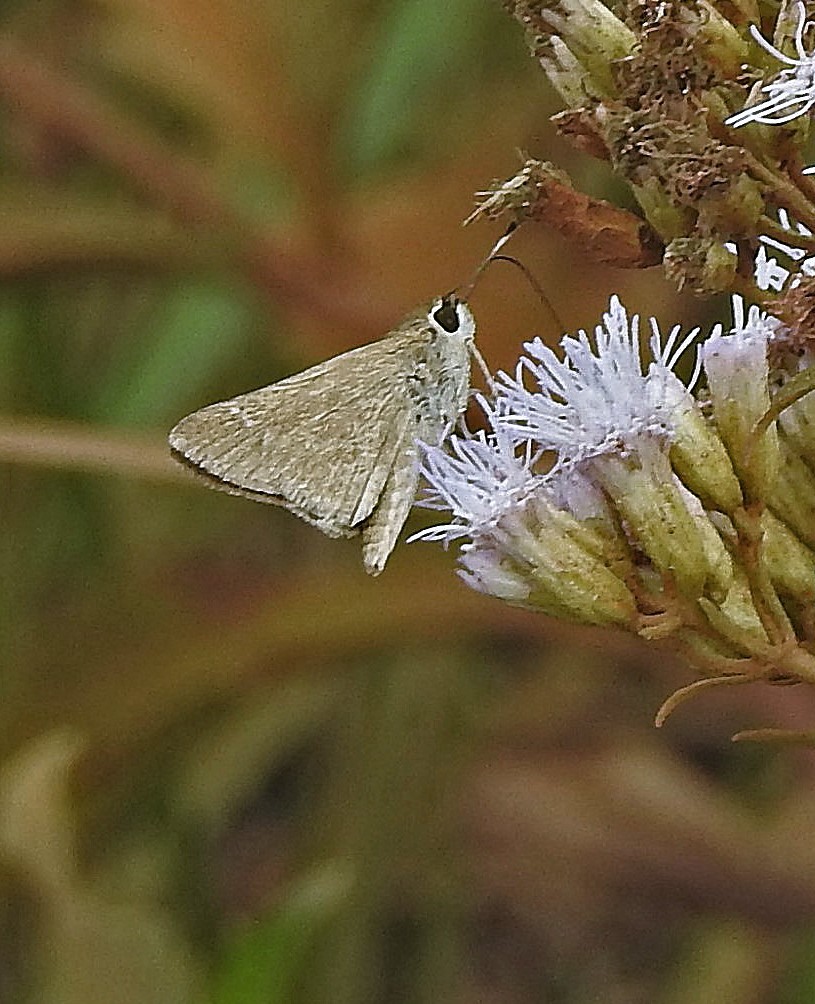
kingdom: Animalia
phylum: Arthropoda
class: Insecta
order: Lepidoptera
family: Hesperiidae
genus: Lerodea
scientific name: Lerodea eufala
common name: Eufala skipper
